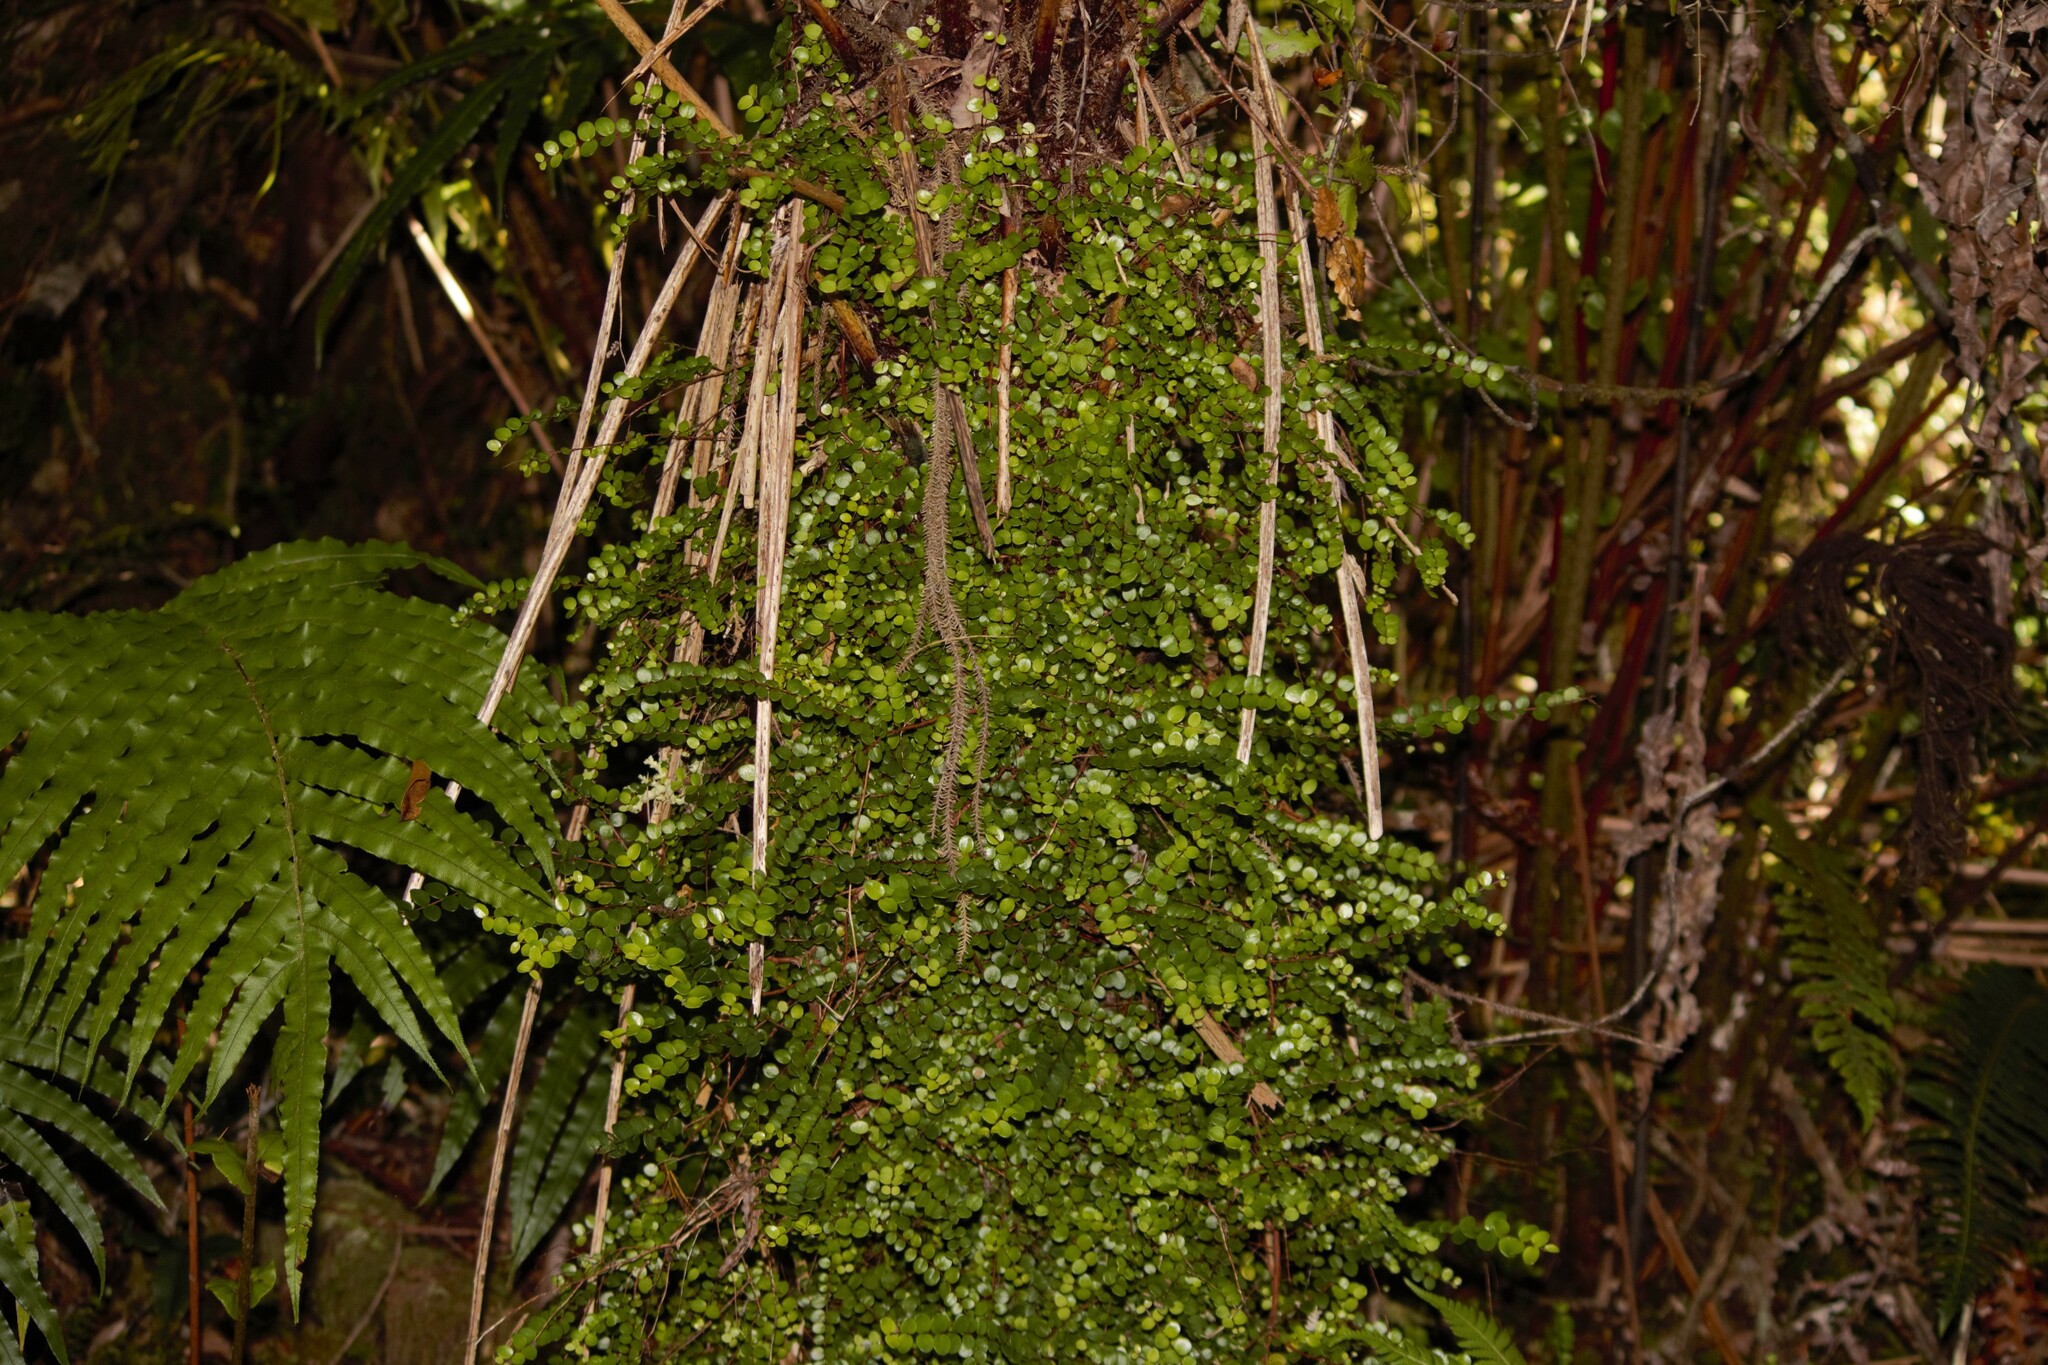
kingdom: Plantae
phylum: Tracheophyta
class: Magnoliopsida
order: Myrtales
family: Myrtaceae
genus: Metrosideros
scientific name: Metrosideros perforata
